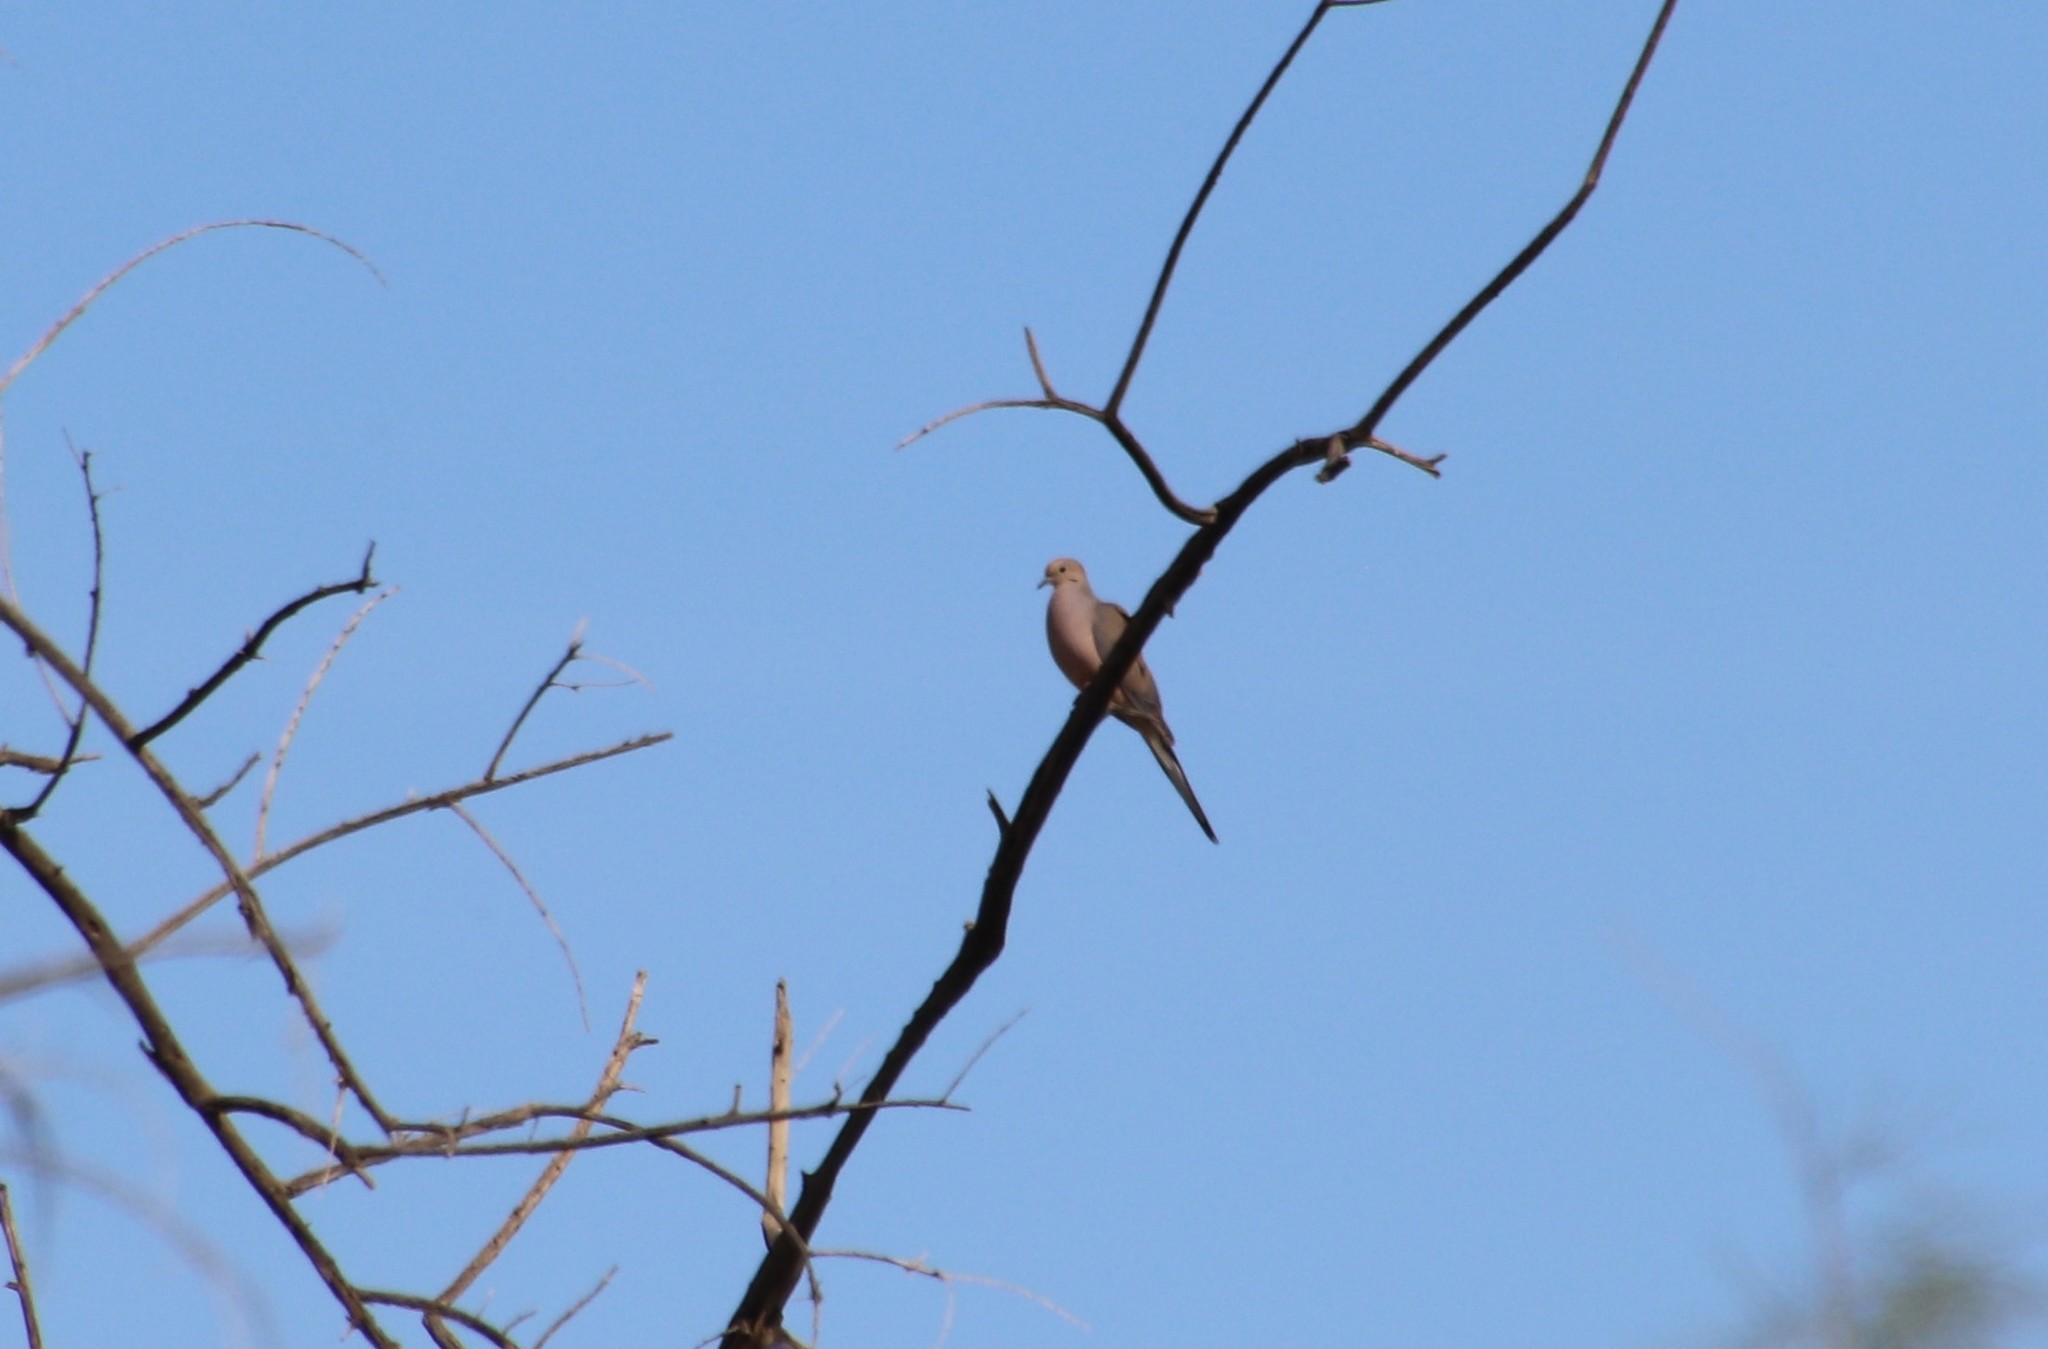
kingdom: Animalia
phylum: Chordata
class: Aves
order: Columbiformes
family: Columbidae
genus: Zenaida
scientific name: Zenaida macroura
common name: Mourning dove
